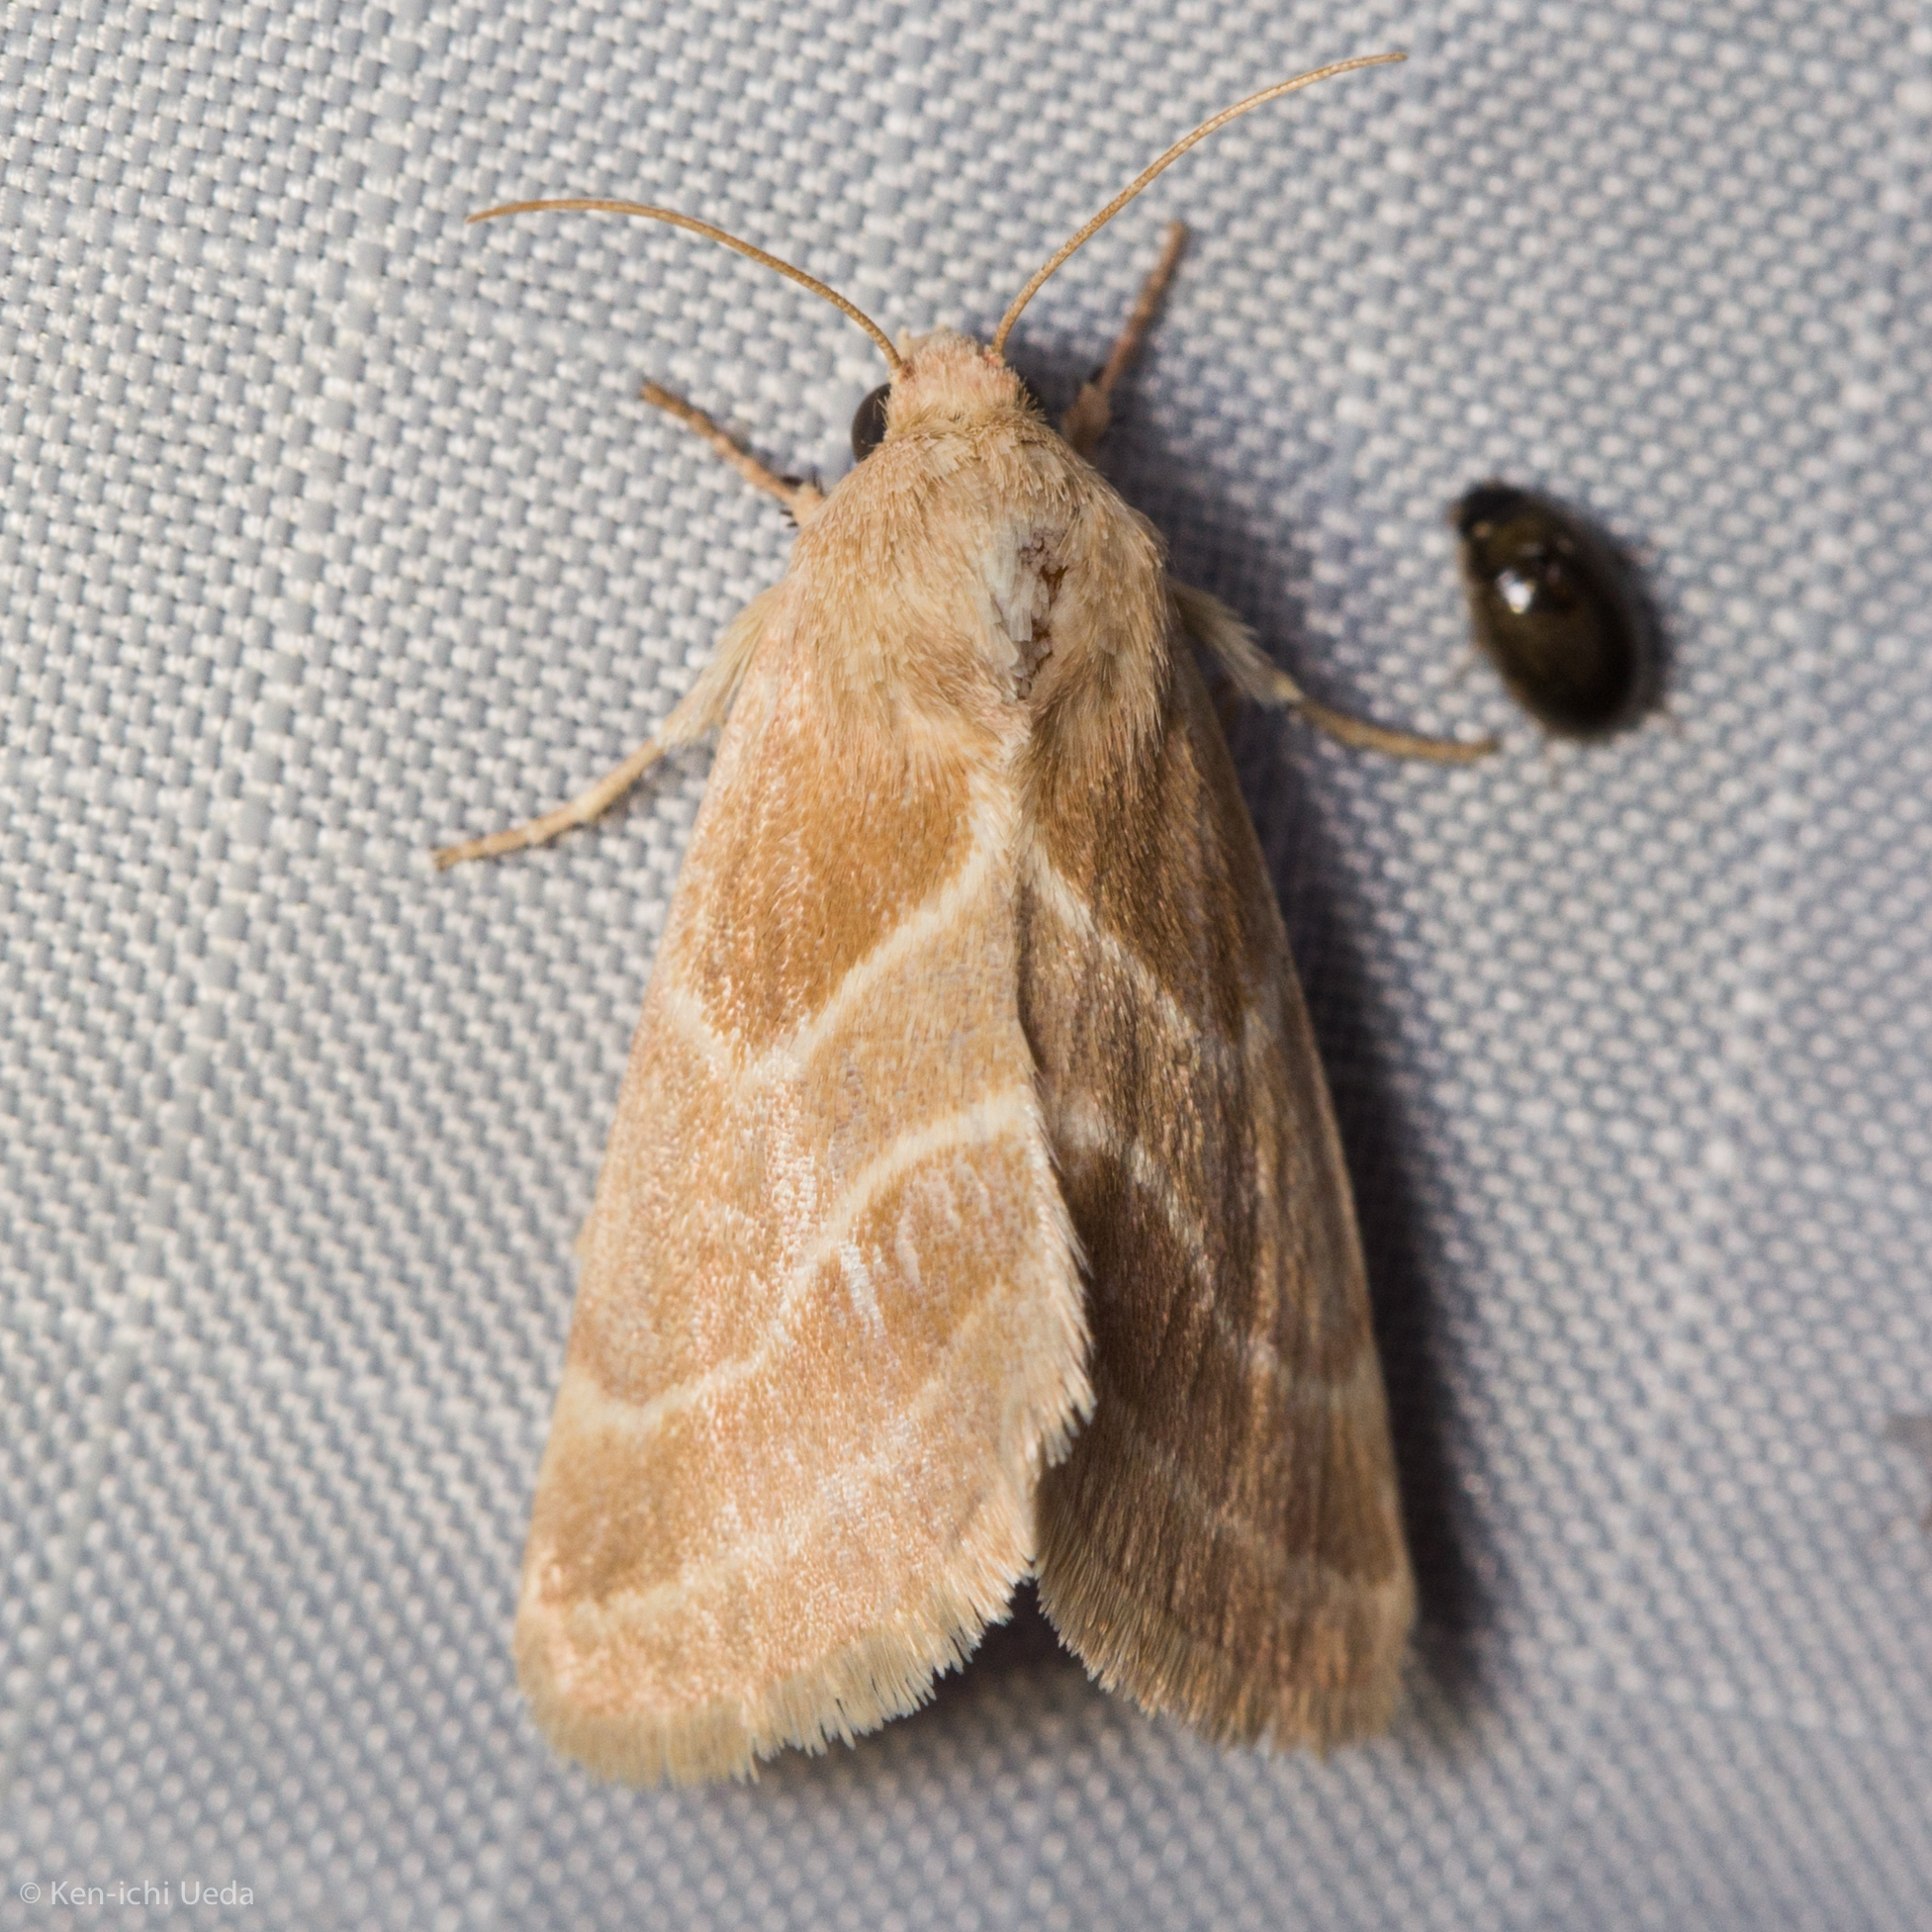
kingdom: Animalia
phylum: Arthropoda
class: Insecta
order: Lepidoptera
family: Noctuidae
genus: Schinia
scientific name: Schinia oleagina
